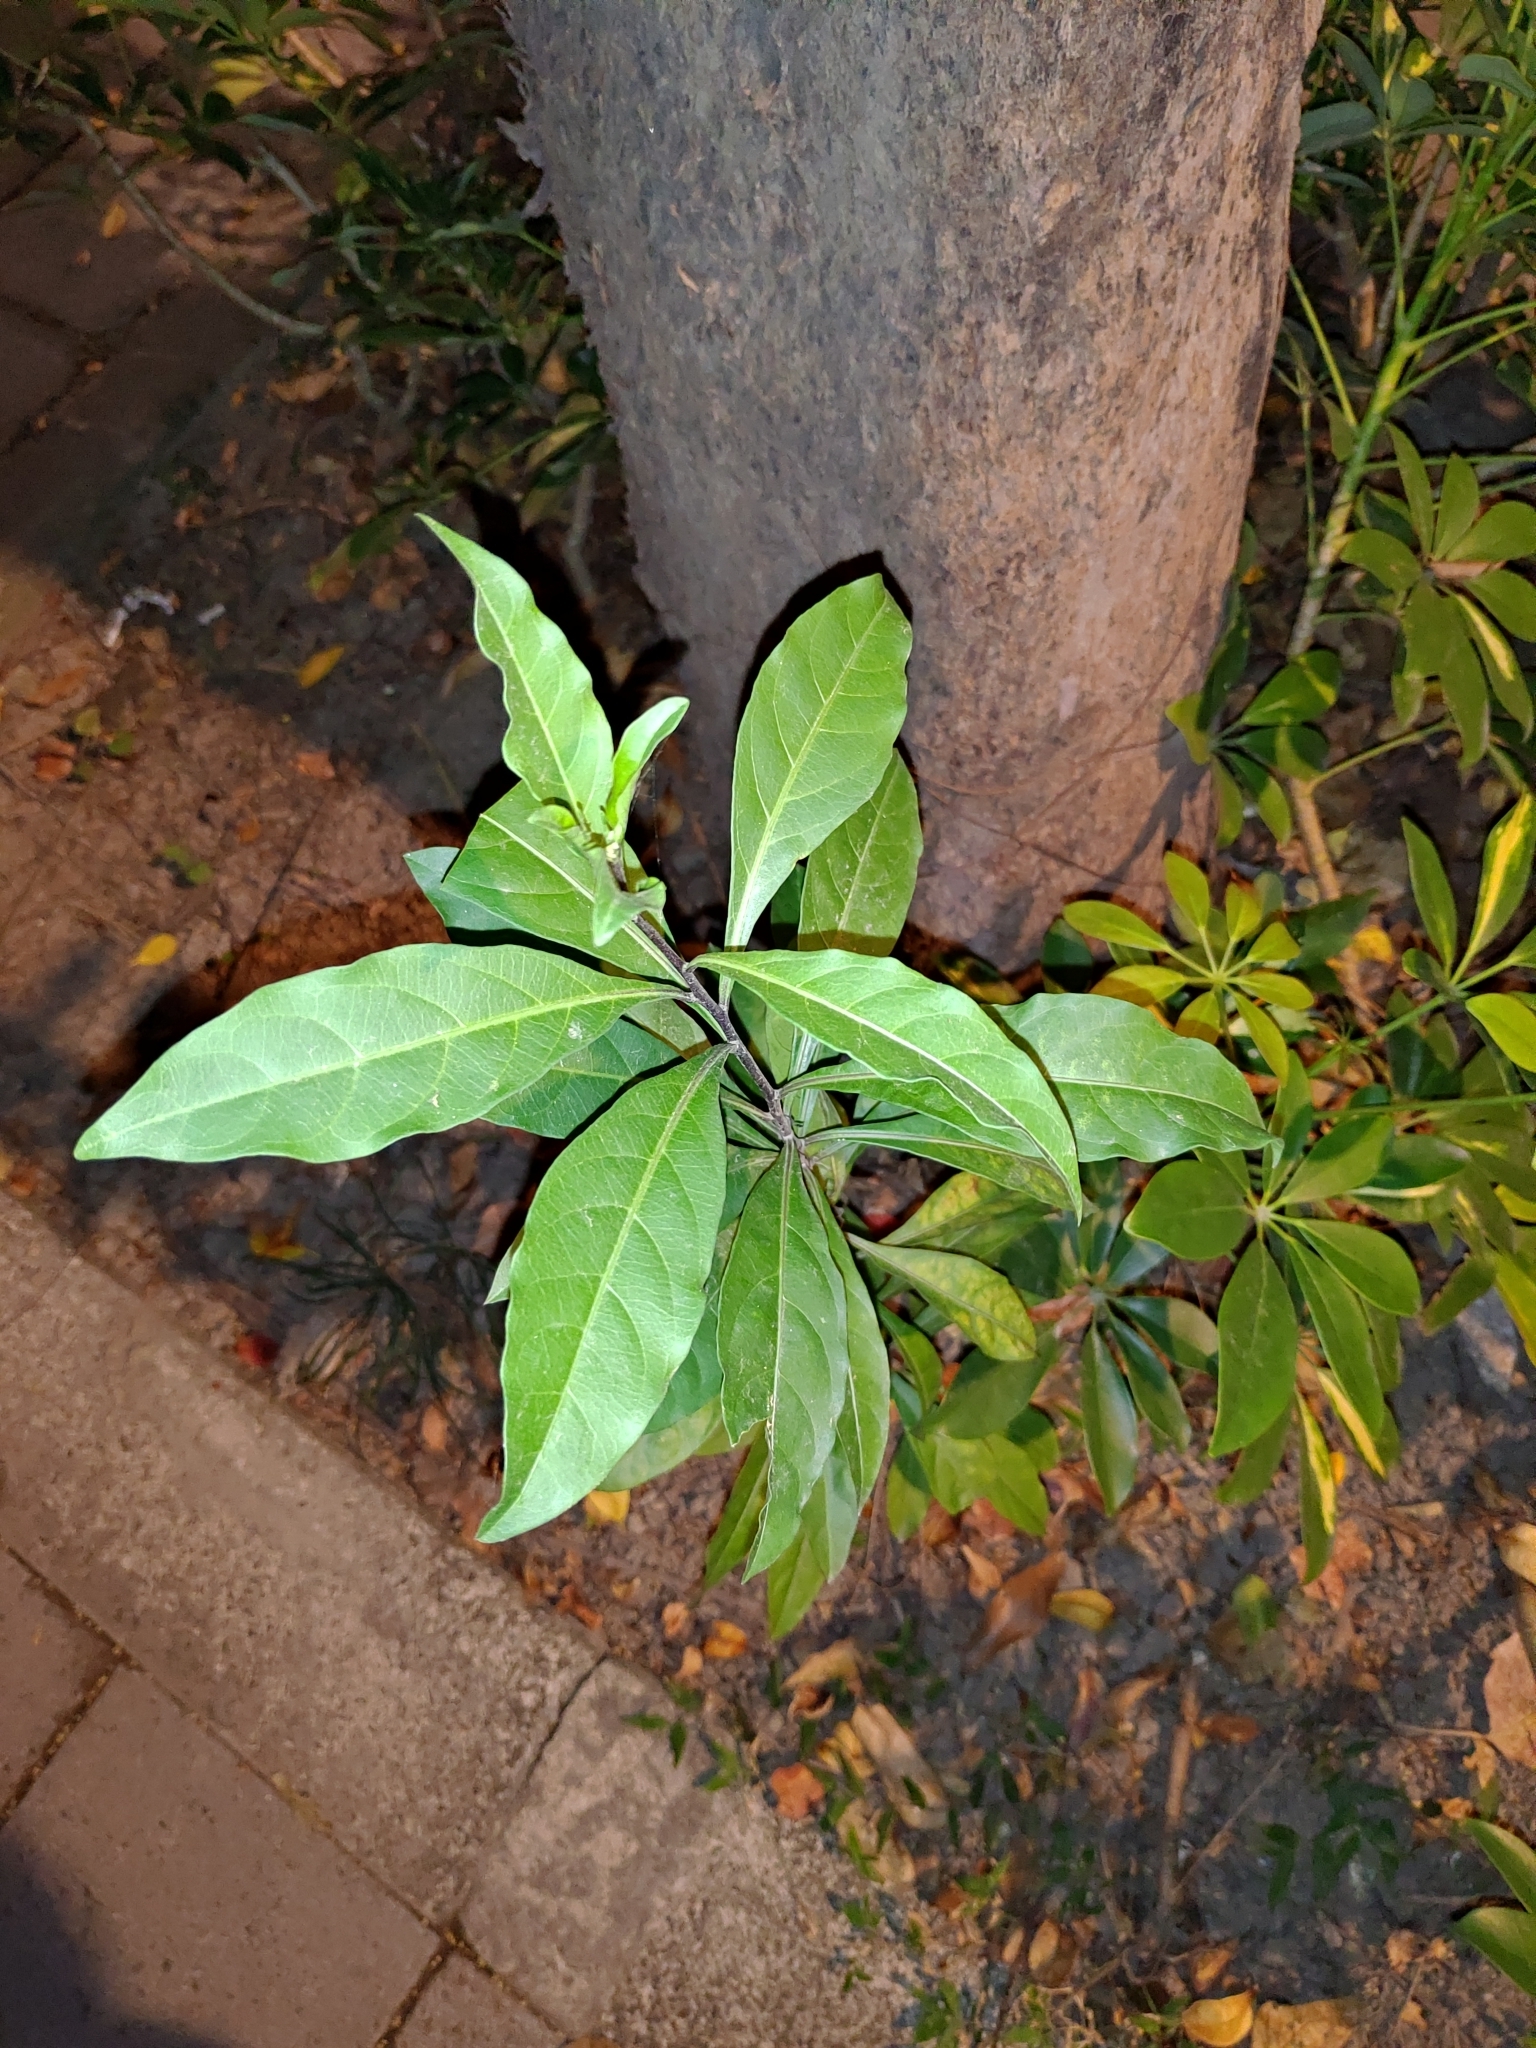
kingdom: Plantae
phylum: Tracheophyta
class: Magnoliopsida
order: Solanales
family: Solanaceae
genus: Solanum
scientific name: Solanum diphyllum
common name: Twoleaf nightshade
